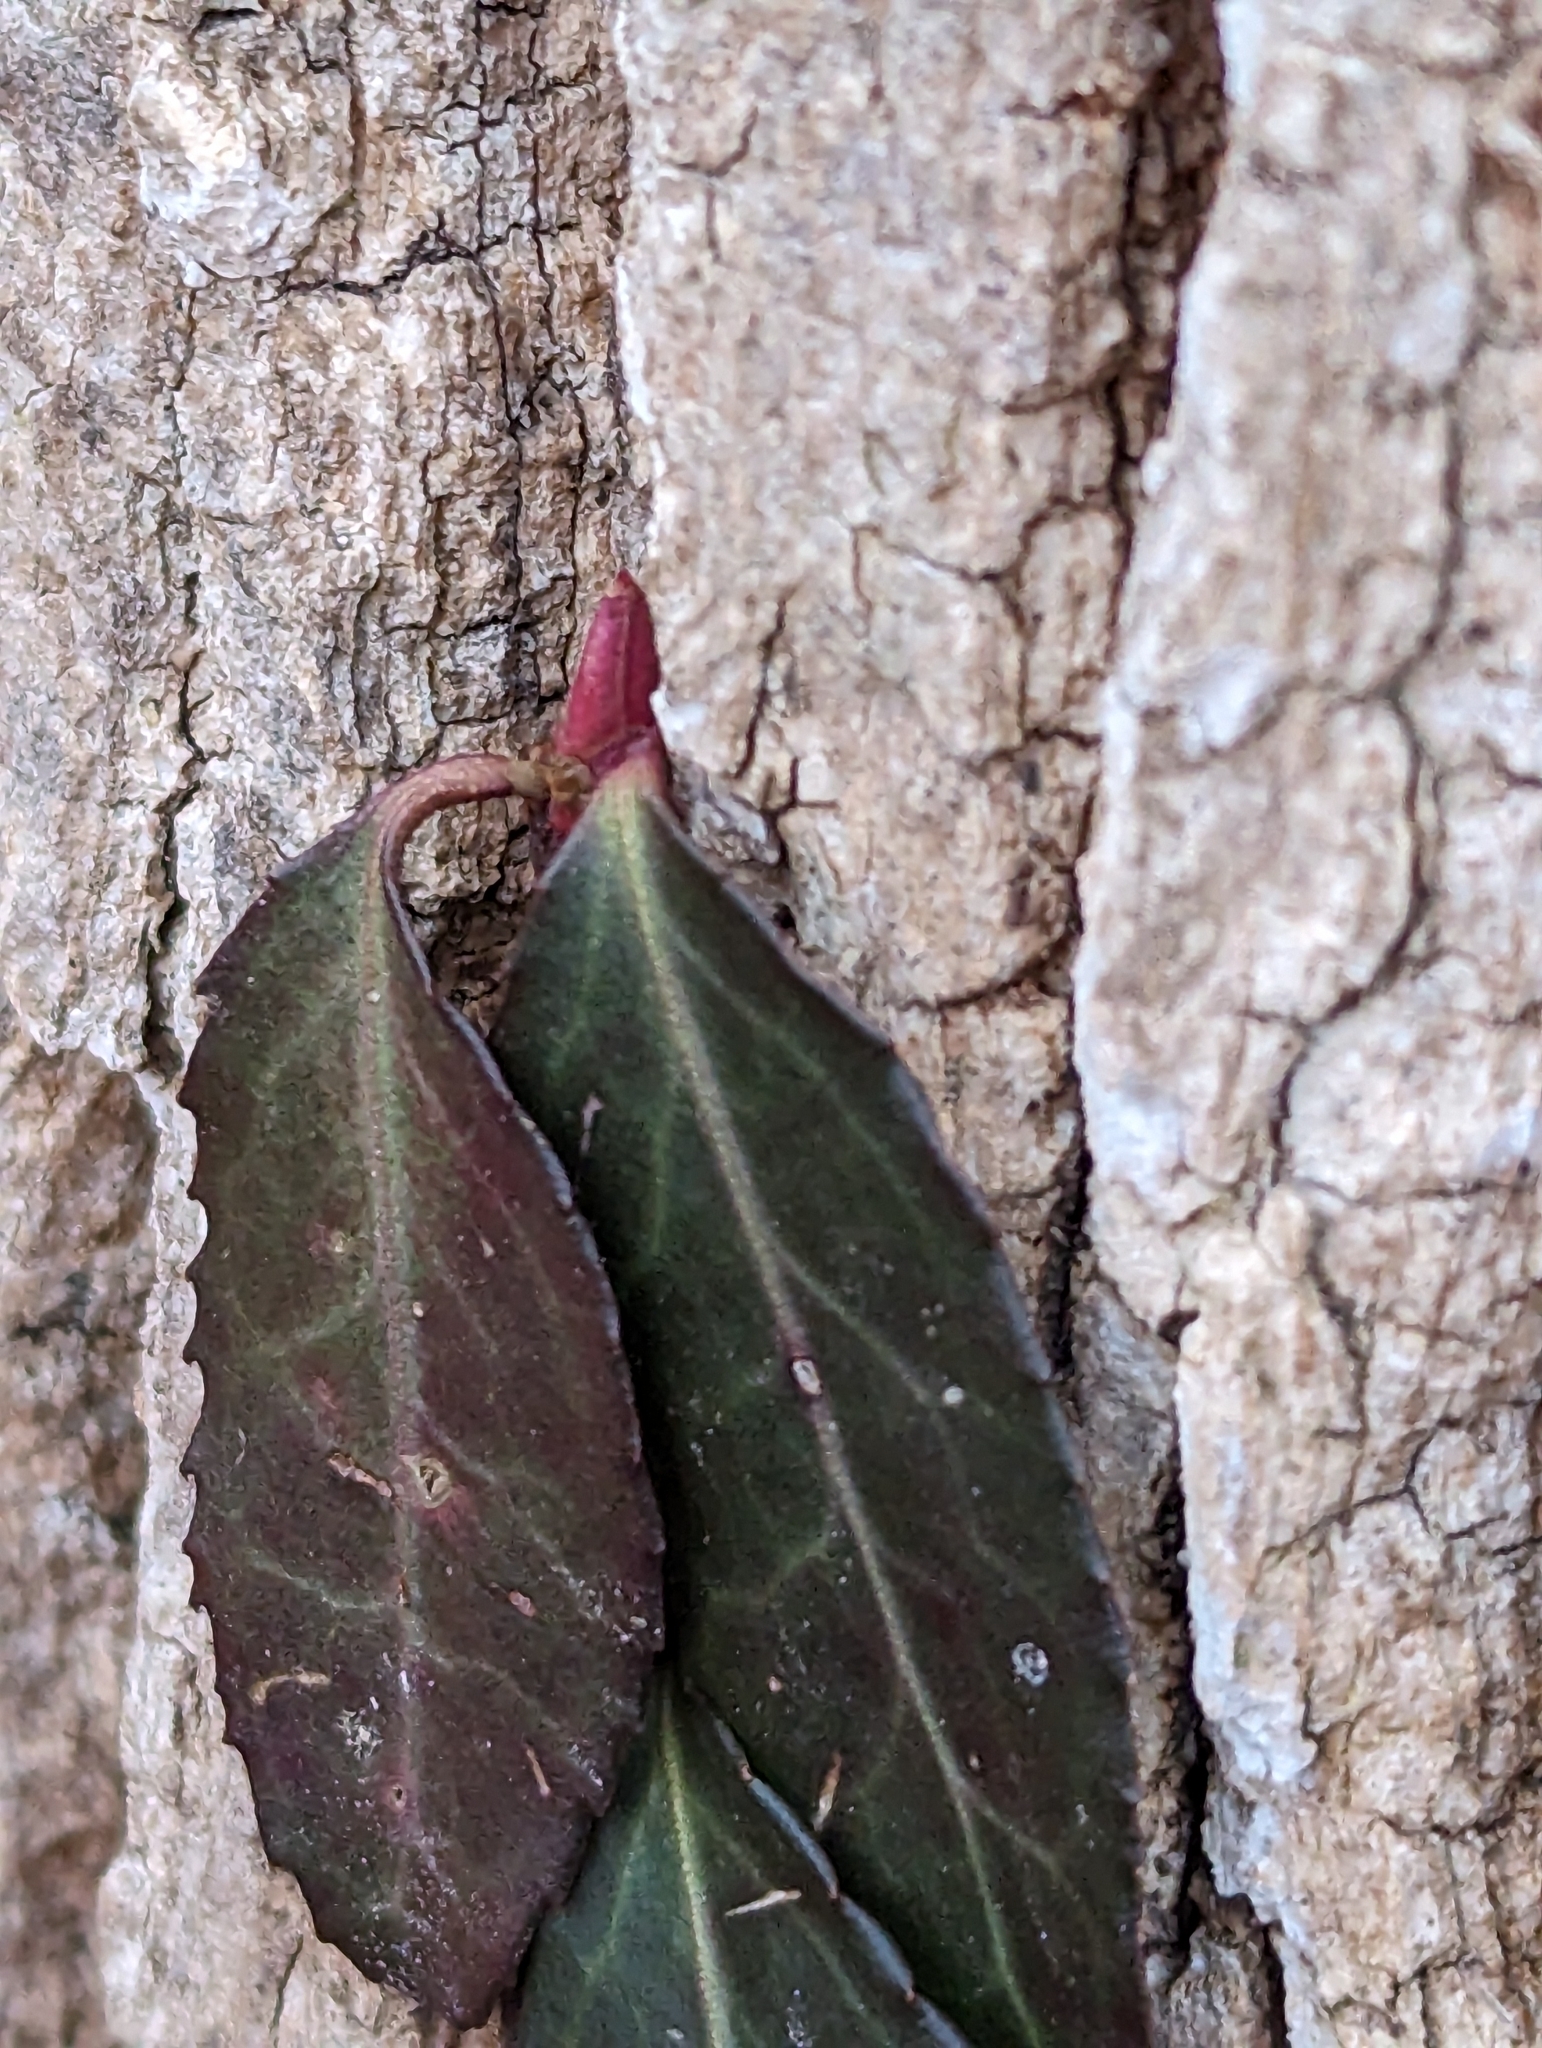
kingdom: Plantae
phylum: Tracheophyta
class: Magnoliopsida
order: Celastrales
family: Celastraceae
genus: Euonymus
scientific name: Euonymus fortunei
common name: Climbing euonymus
